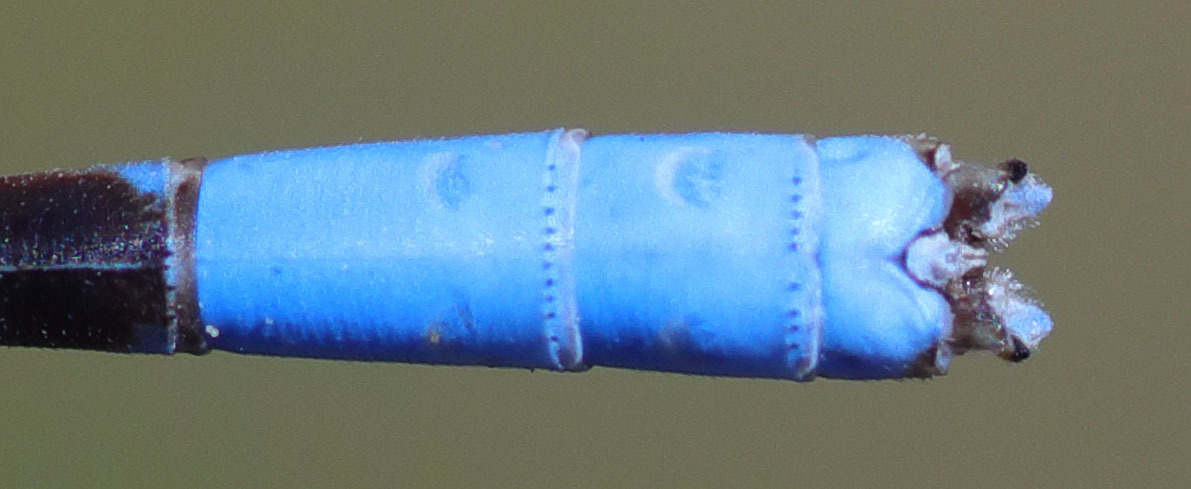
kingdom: Animalia
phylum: Arthropoda
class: Insecta
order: Odonata
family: Coenagrionidae
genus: Argia
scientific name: Argia agrioides
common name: California dancer
